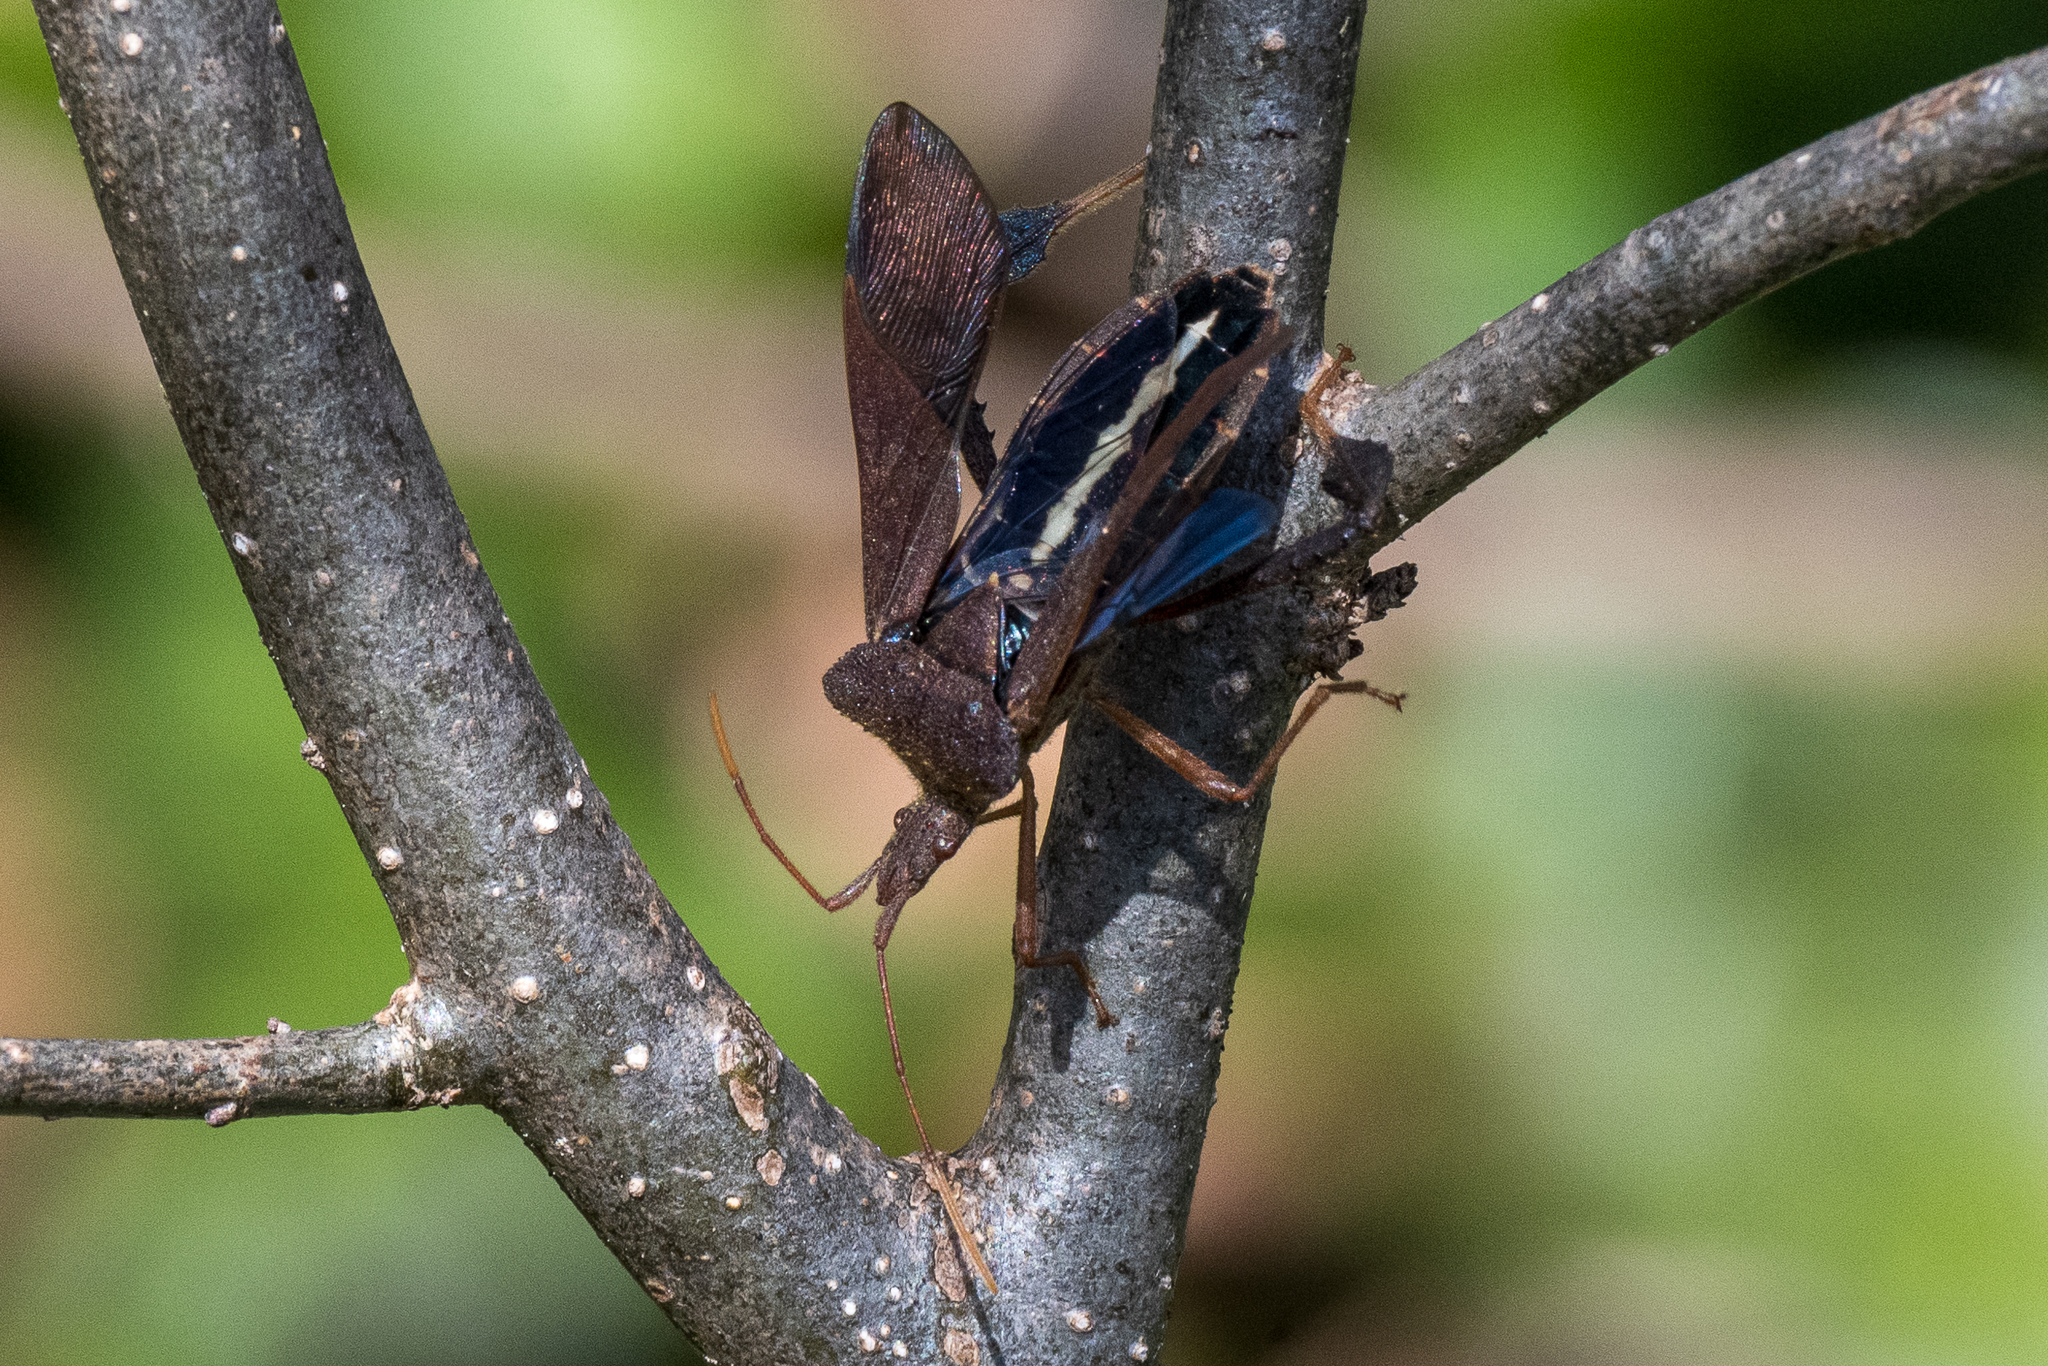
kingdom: Animalia
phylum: Arthropoda
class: Insecta
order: Hemiptera
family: Coreidae
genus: Leptoglossus
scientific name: Leptoglossus fulvicornis
